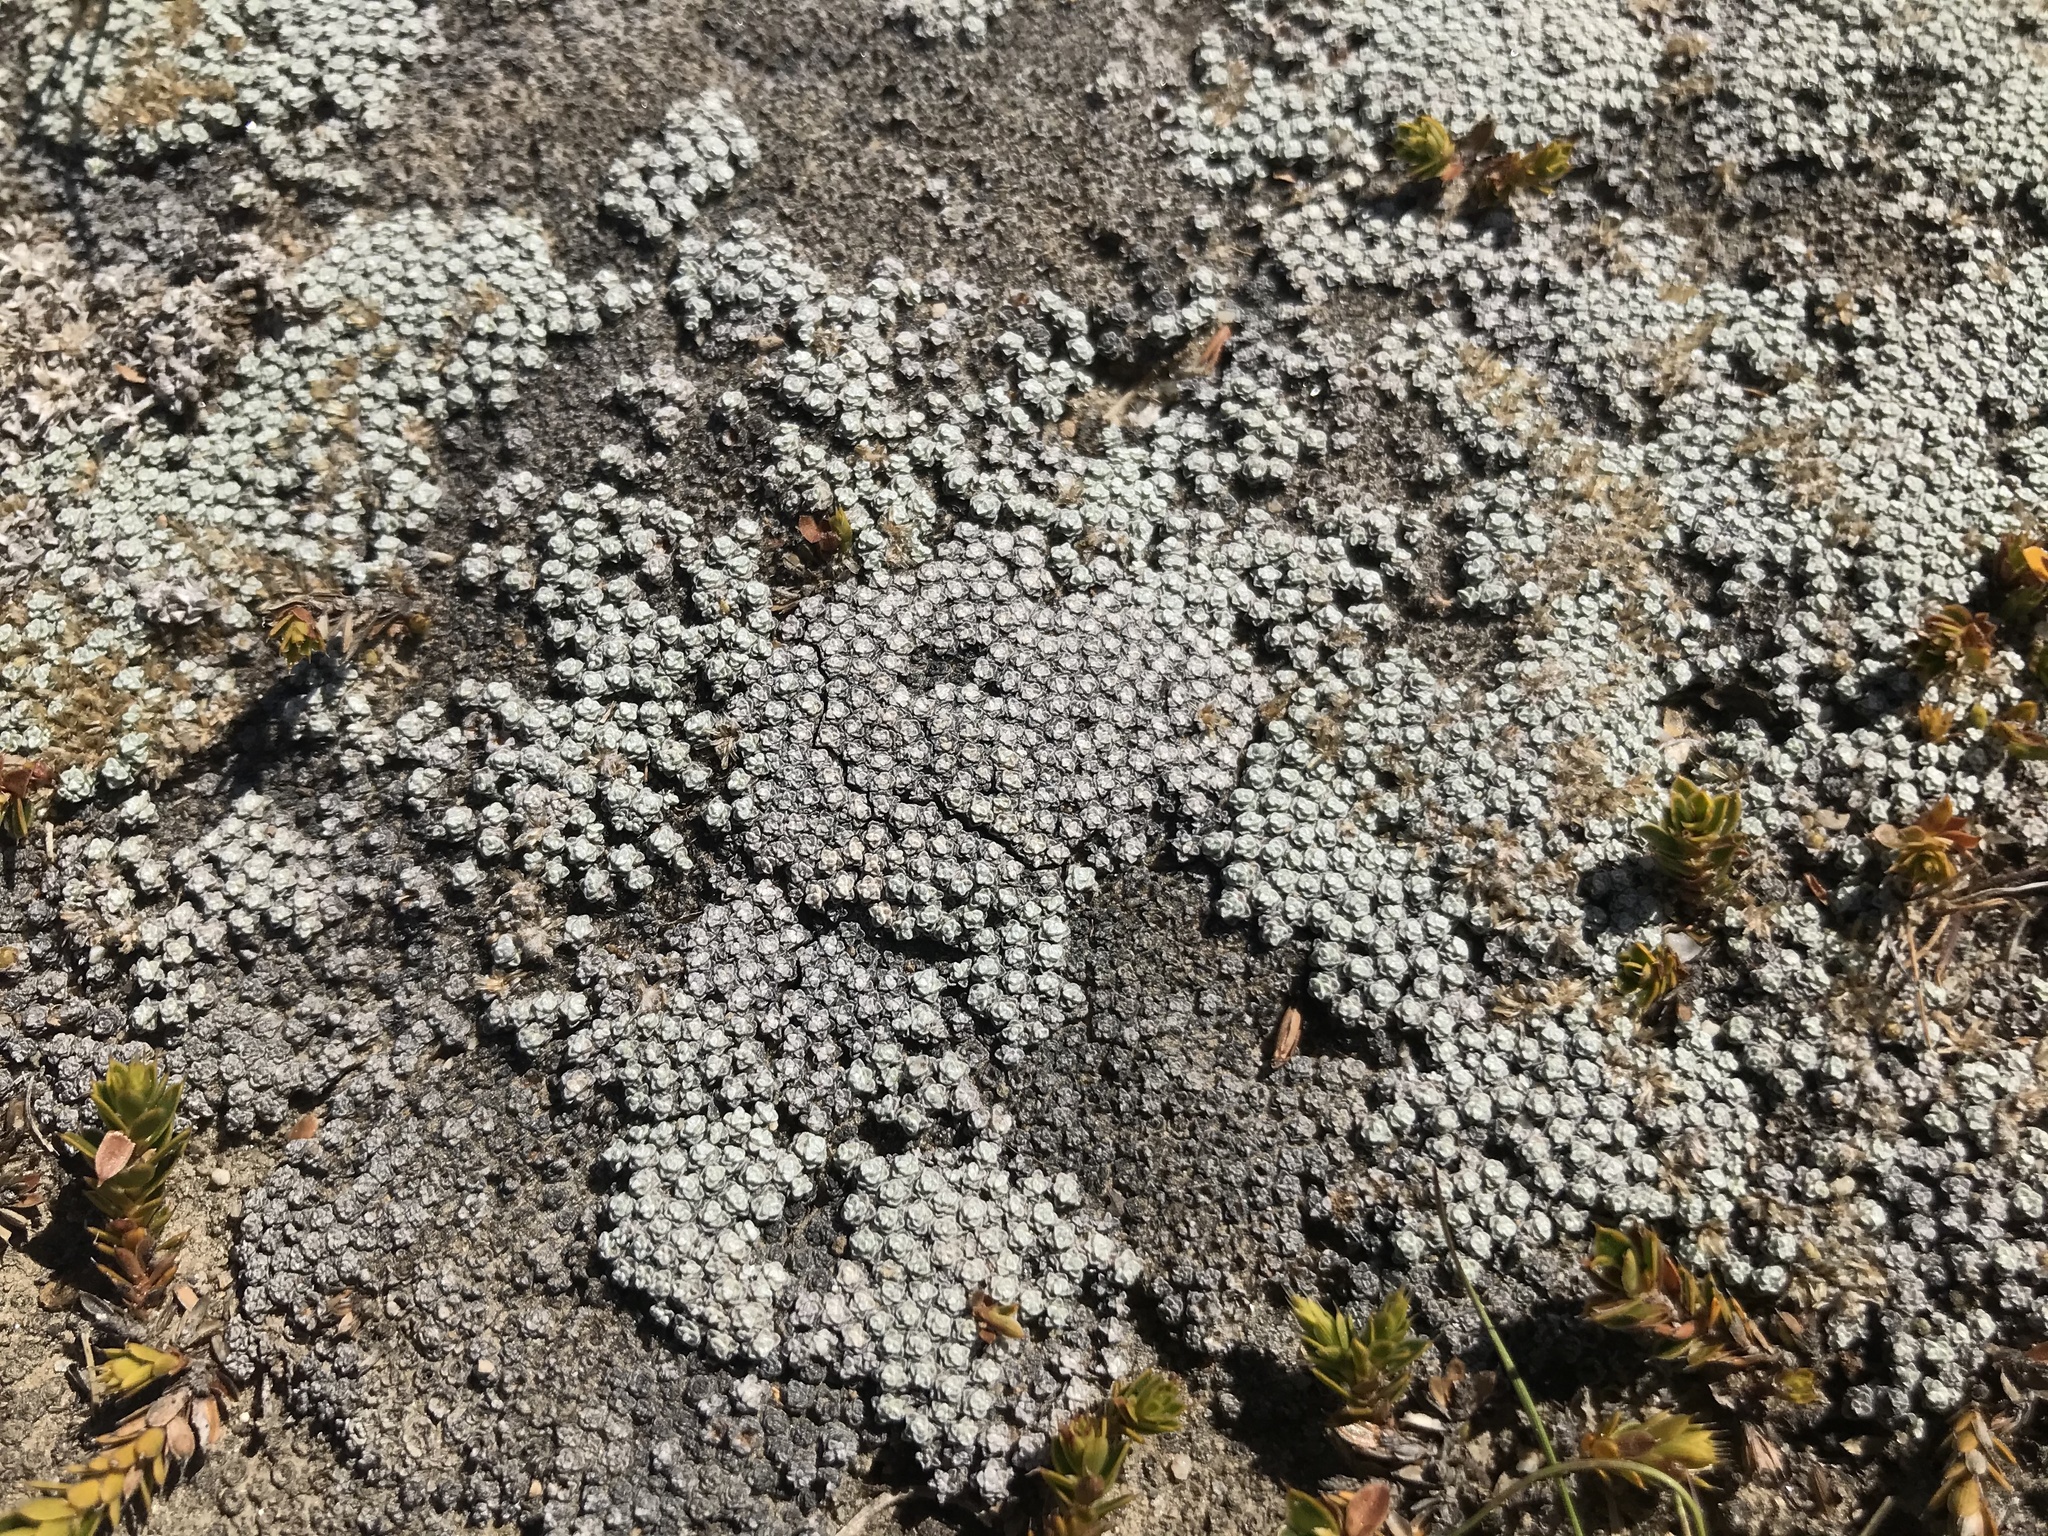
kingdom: Plantae
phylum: Tracheophyta
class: Magnoliopsida
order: Asterales
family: Asteraceae
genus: Raoulia
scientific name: Raoulia australis
